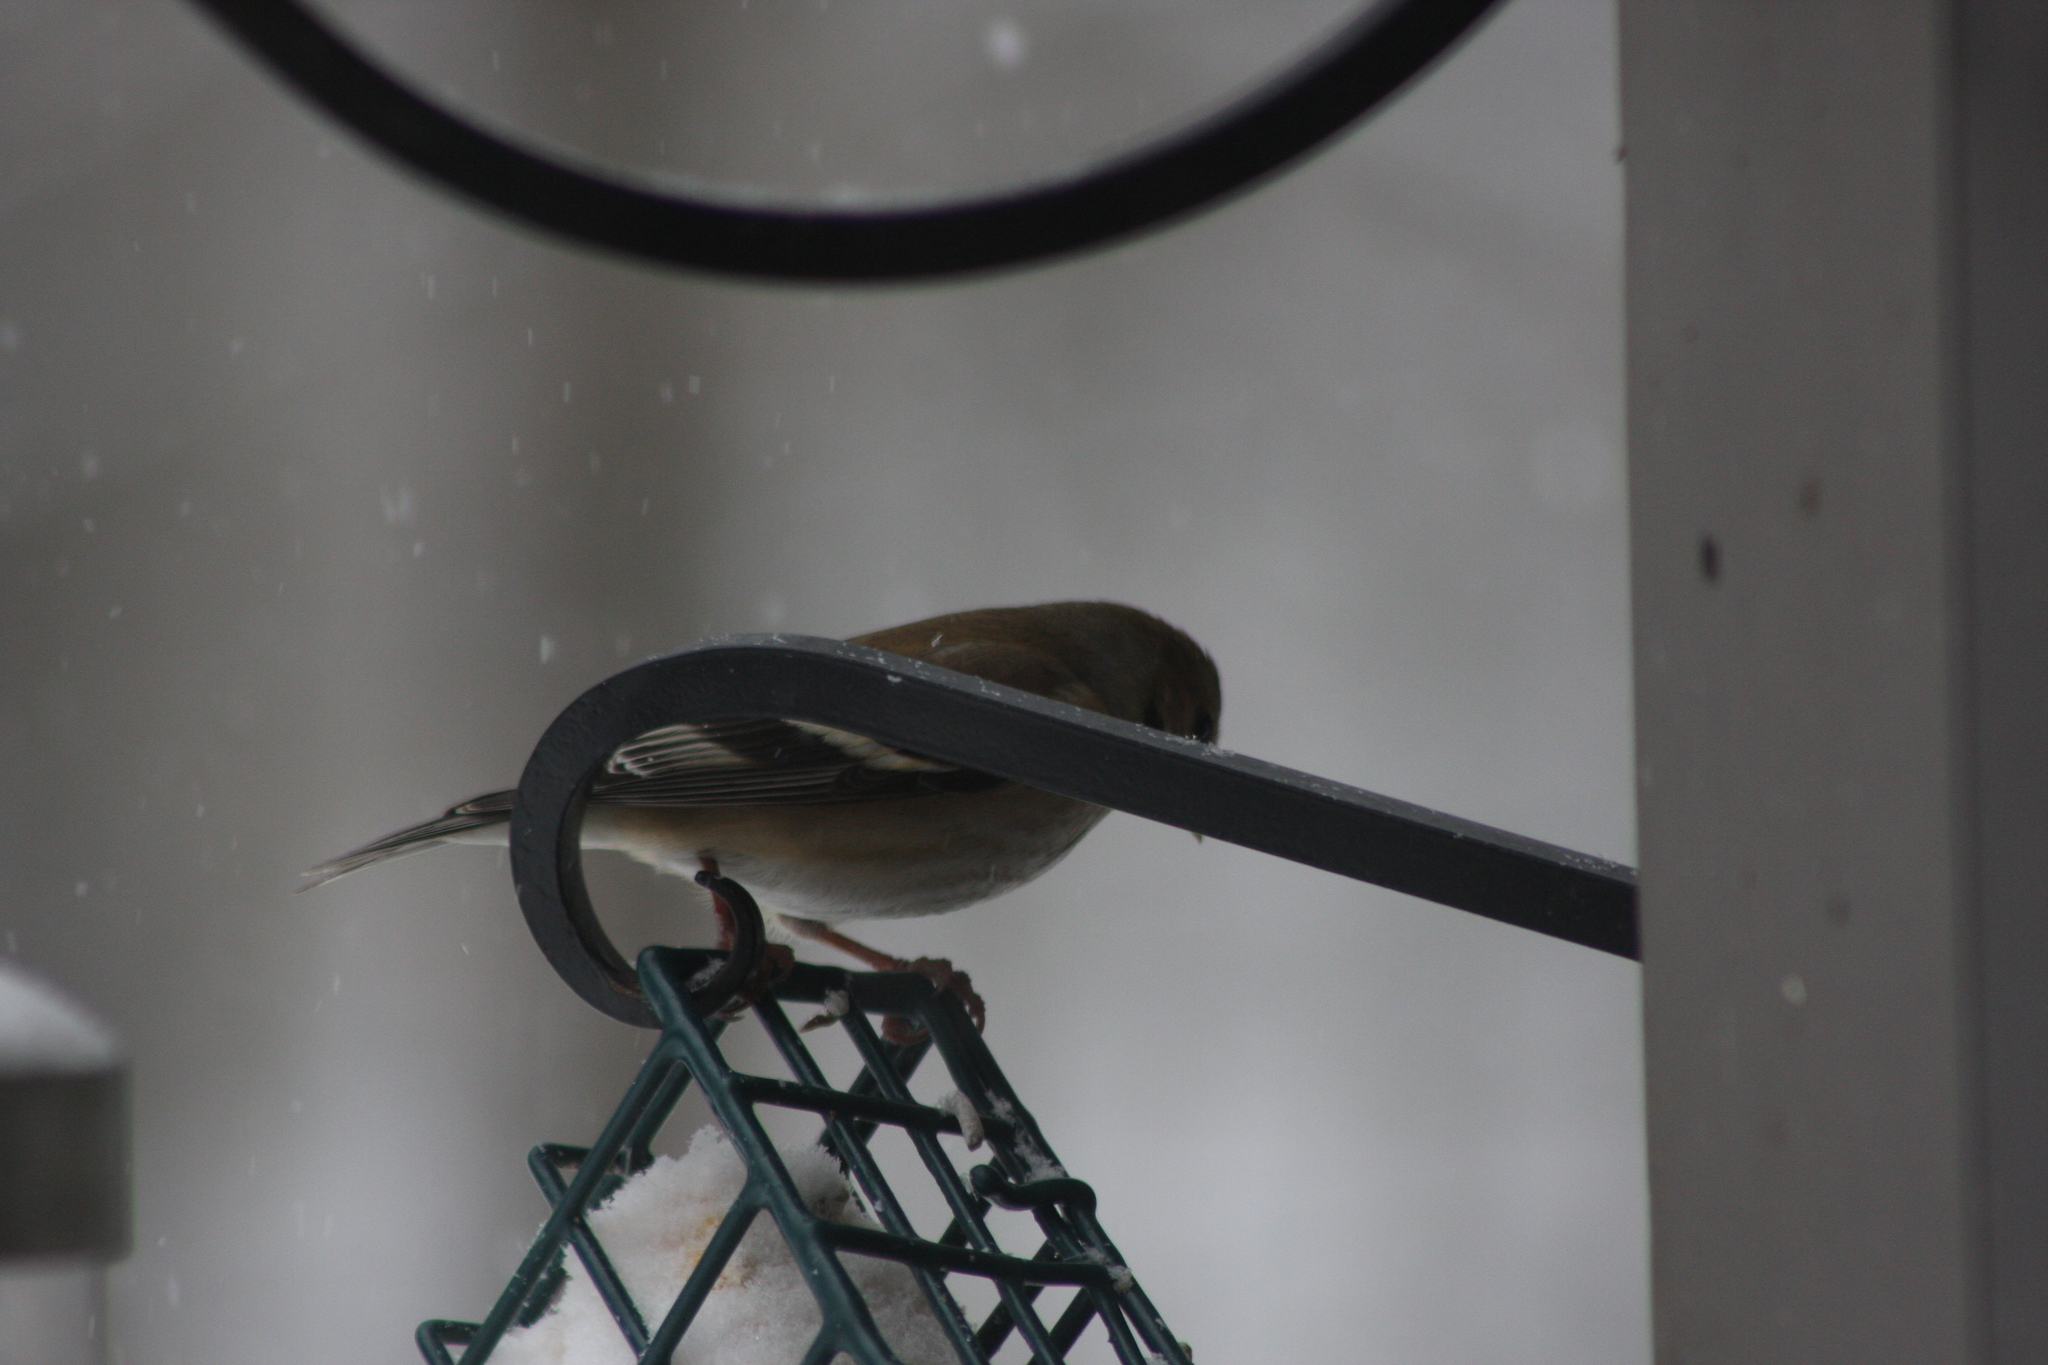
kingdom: Animalia
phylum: Chordata
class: Aves
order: Passeriformes
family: Fringillidae
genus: Spinus
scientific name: Spinus tristis
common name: American goldfinch
